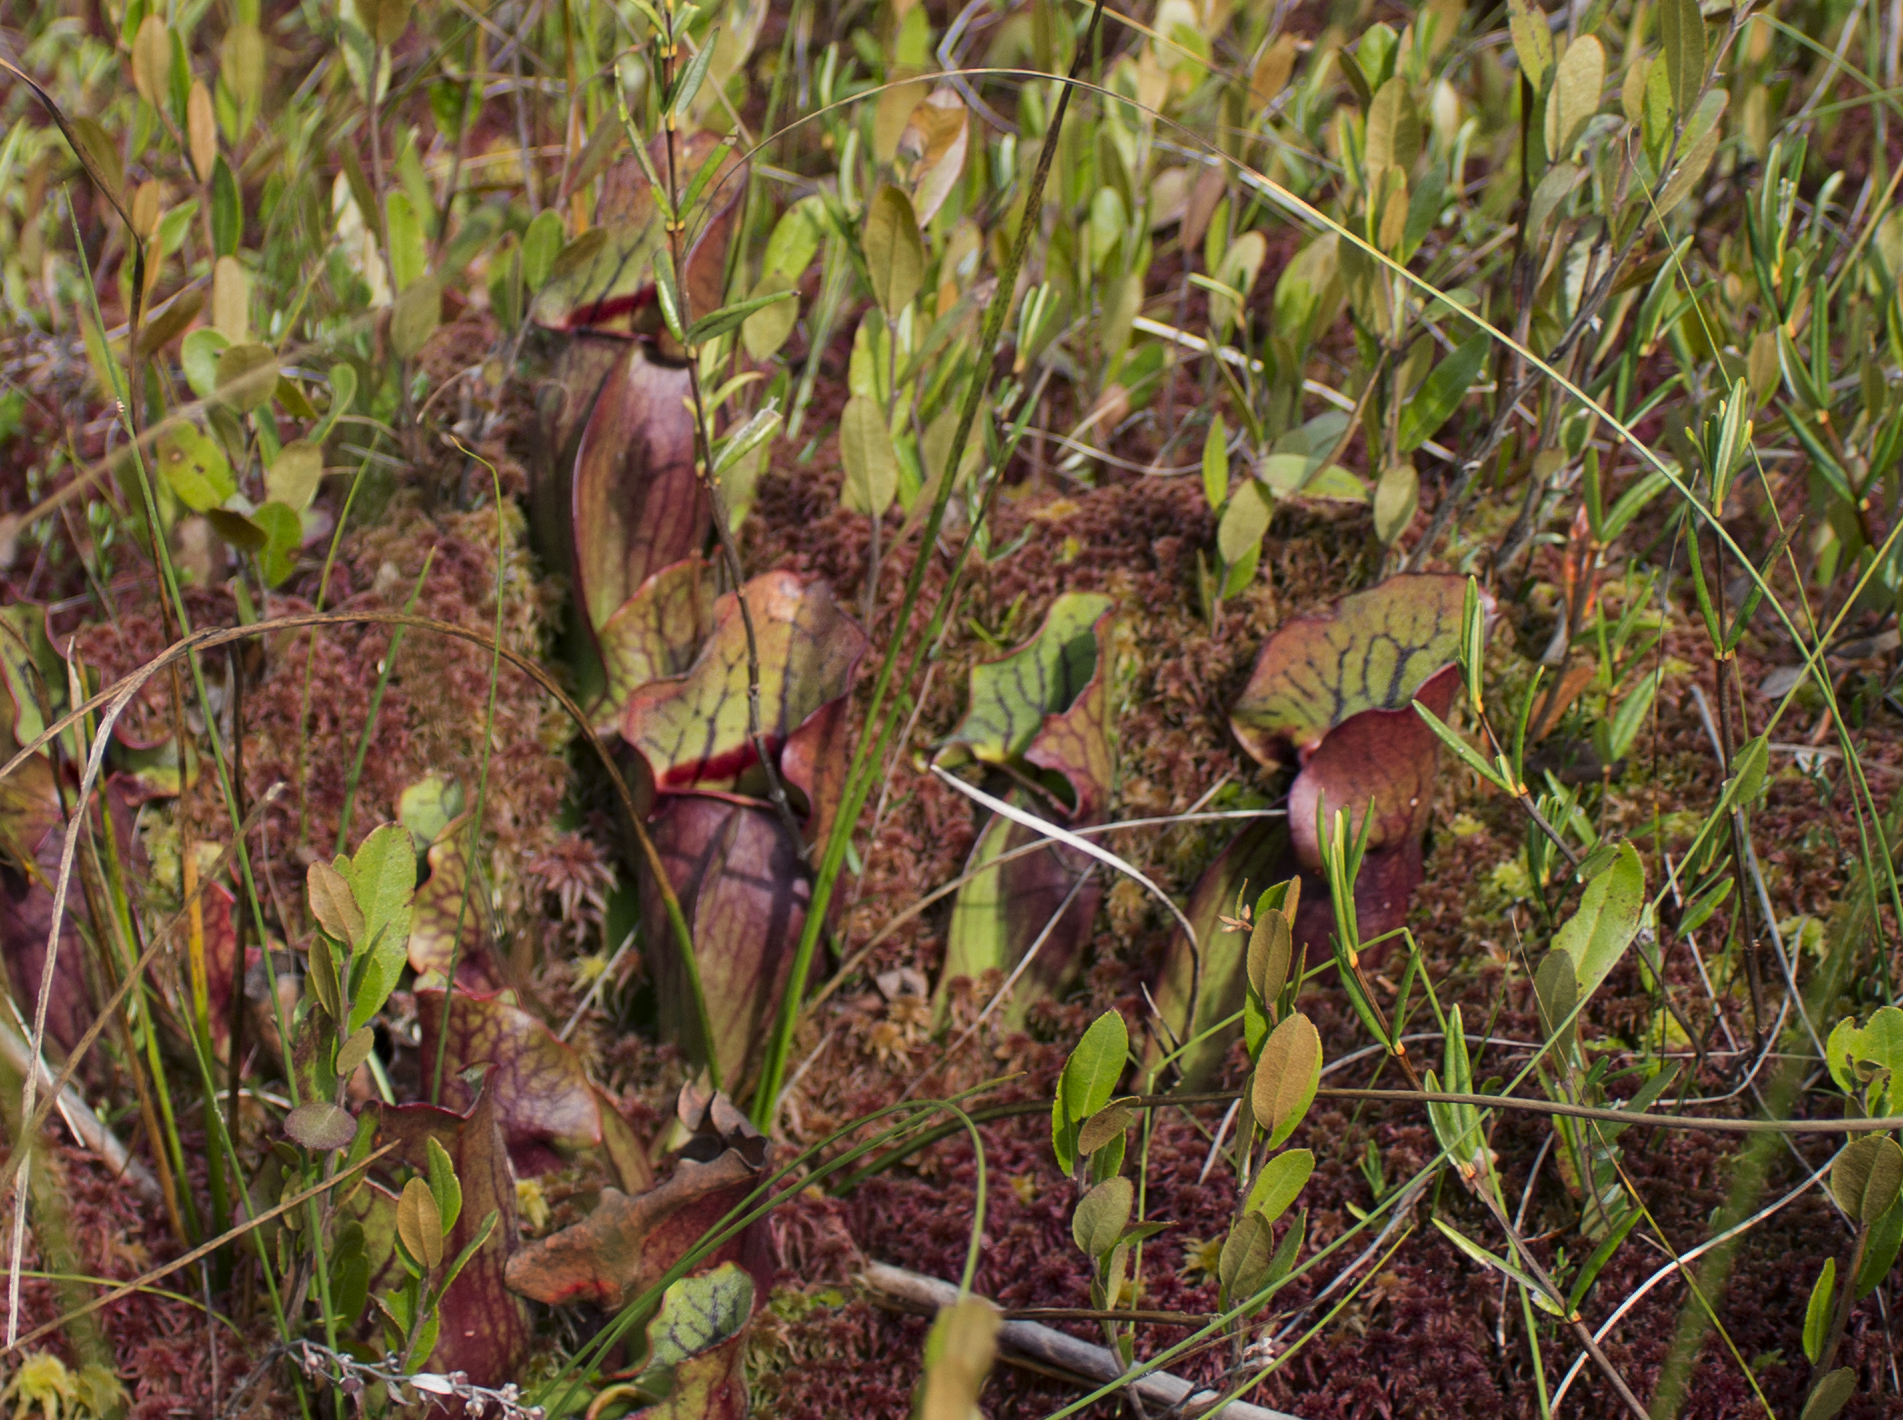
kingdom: Plantae
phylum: Tracheophyta
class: Magnoliopsida
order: Ericales
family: Sarraceniaceae
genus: Sarracenia
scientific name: Sarracenia purpurea
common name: Pitcherplant
